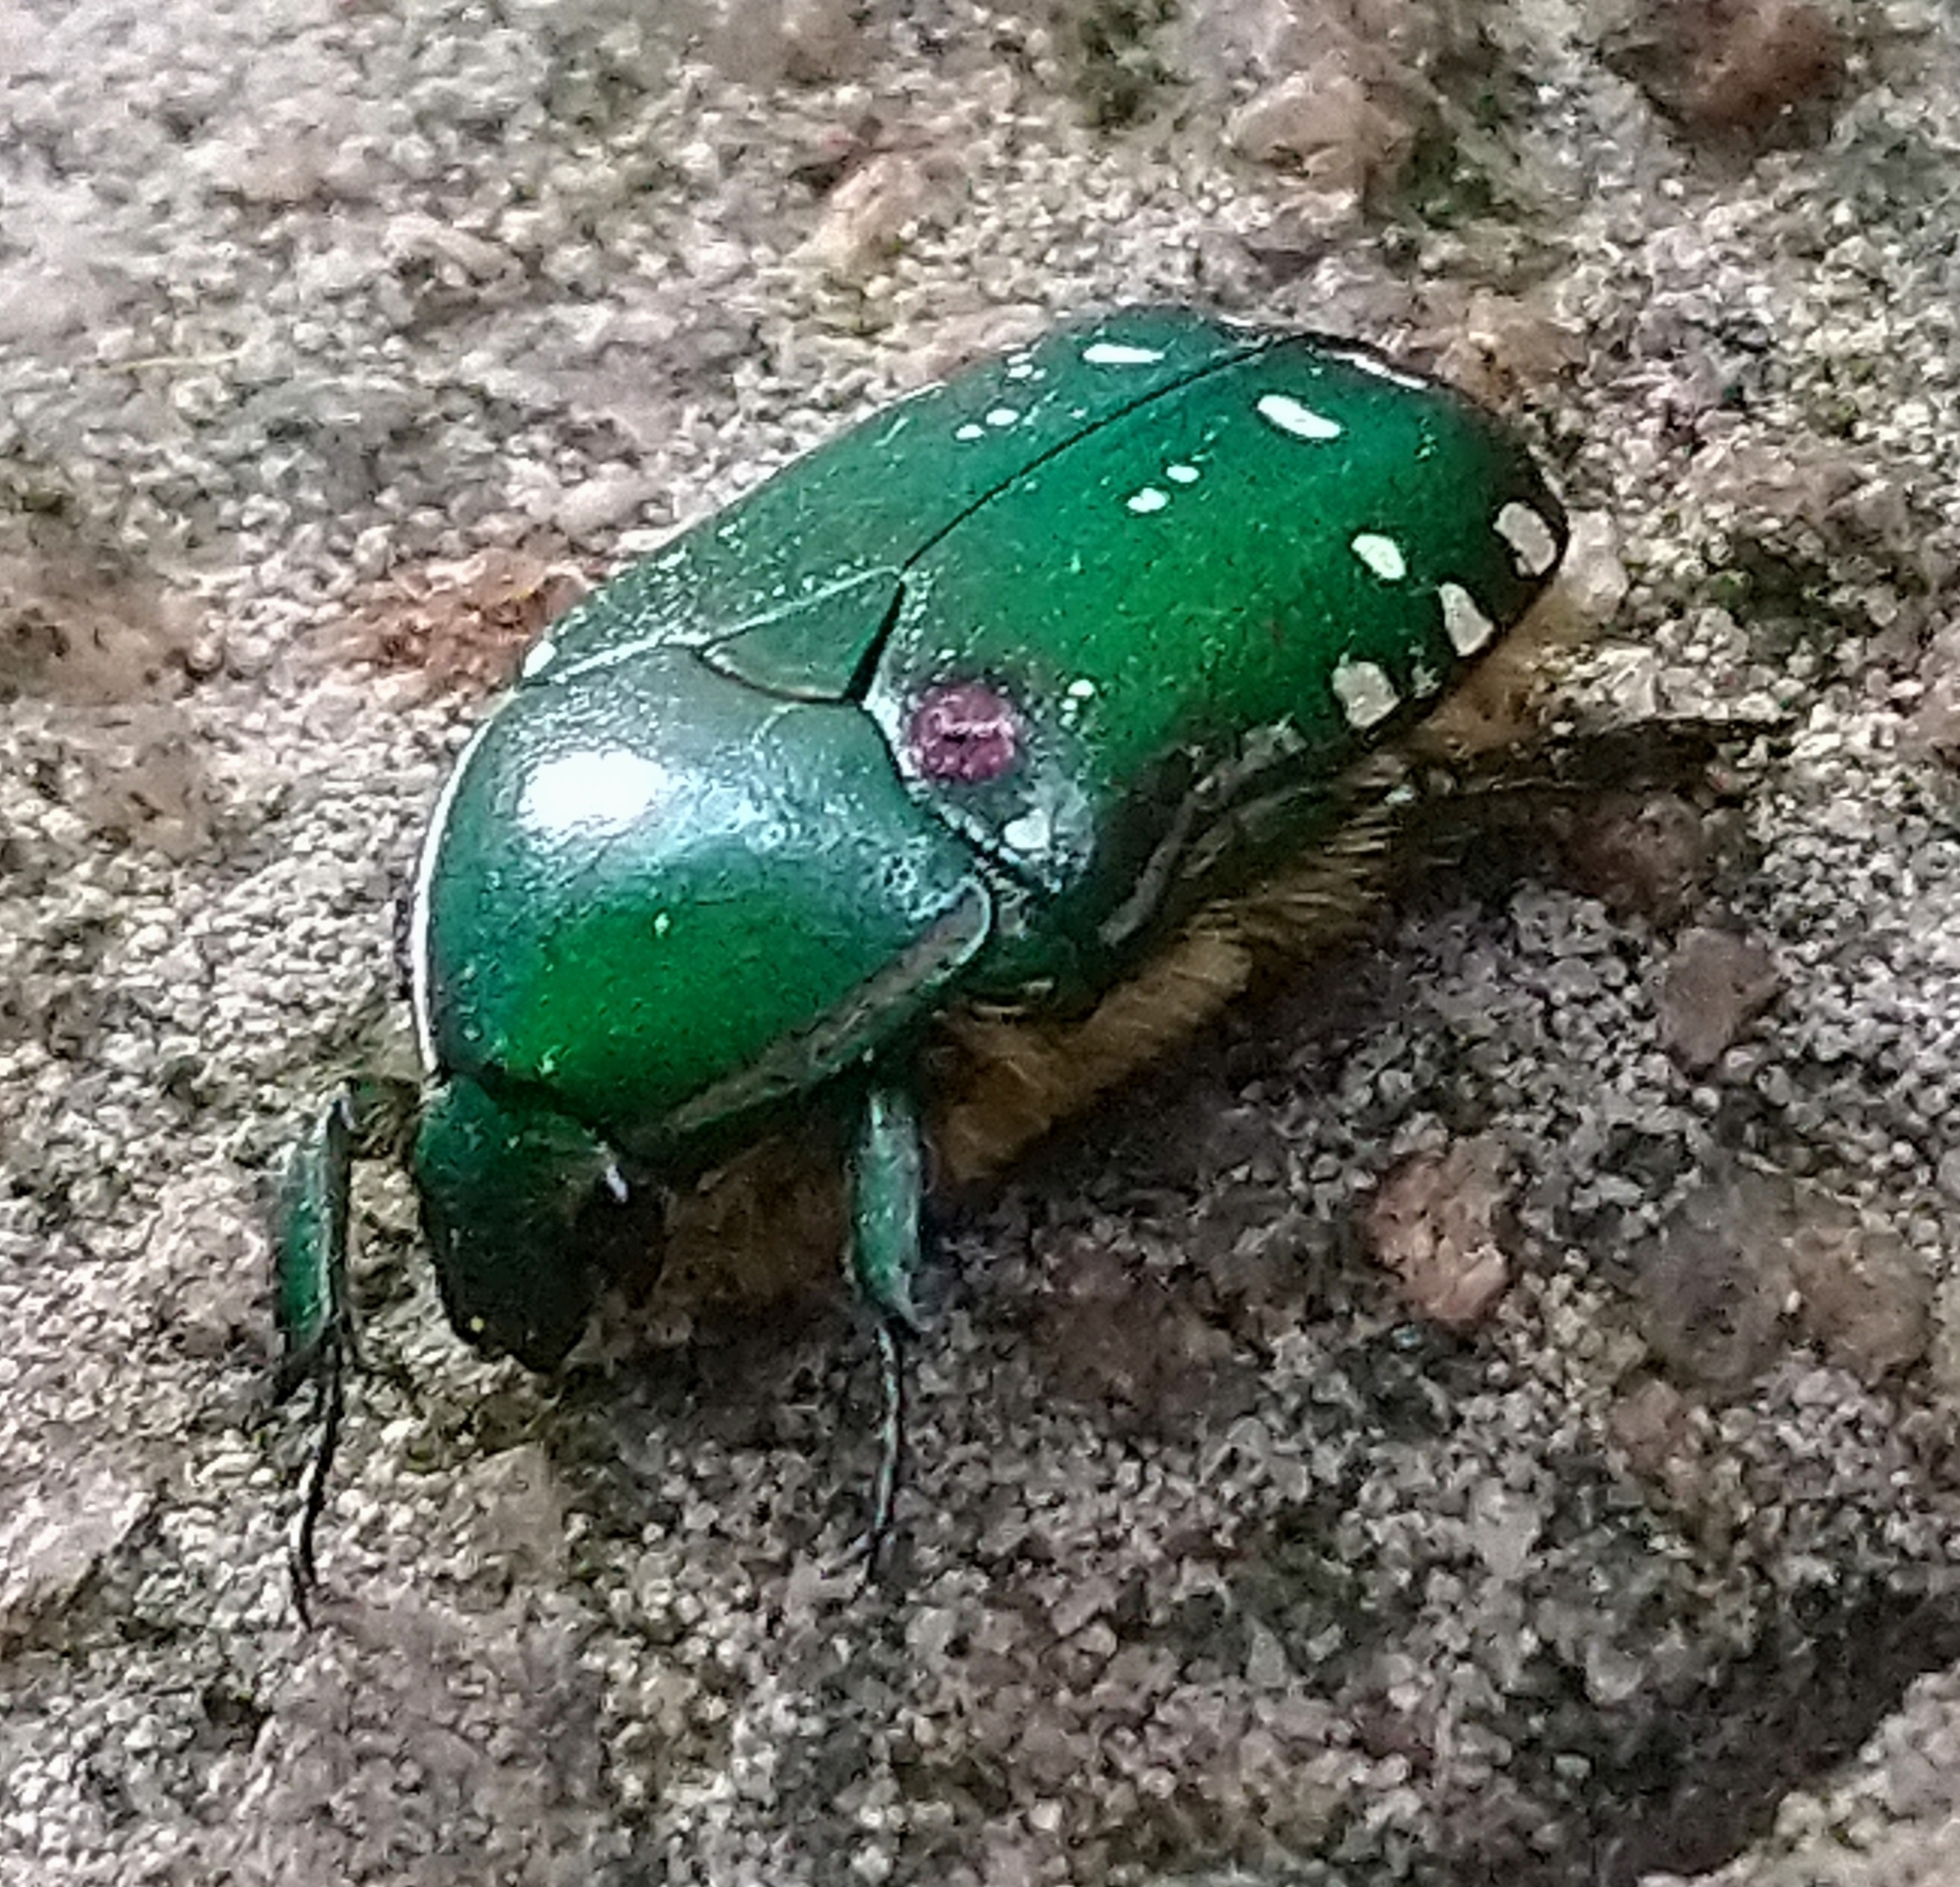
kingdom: Animalia
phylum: Arthropoda
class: Insecta
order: Coleoptera
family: Scarabaeidae
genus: Rhabdotis
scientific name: Rhabdotis aulica
